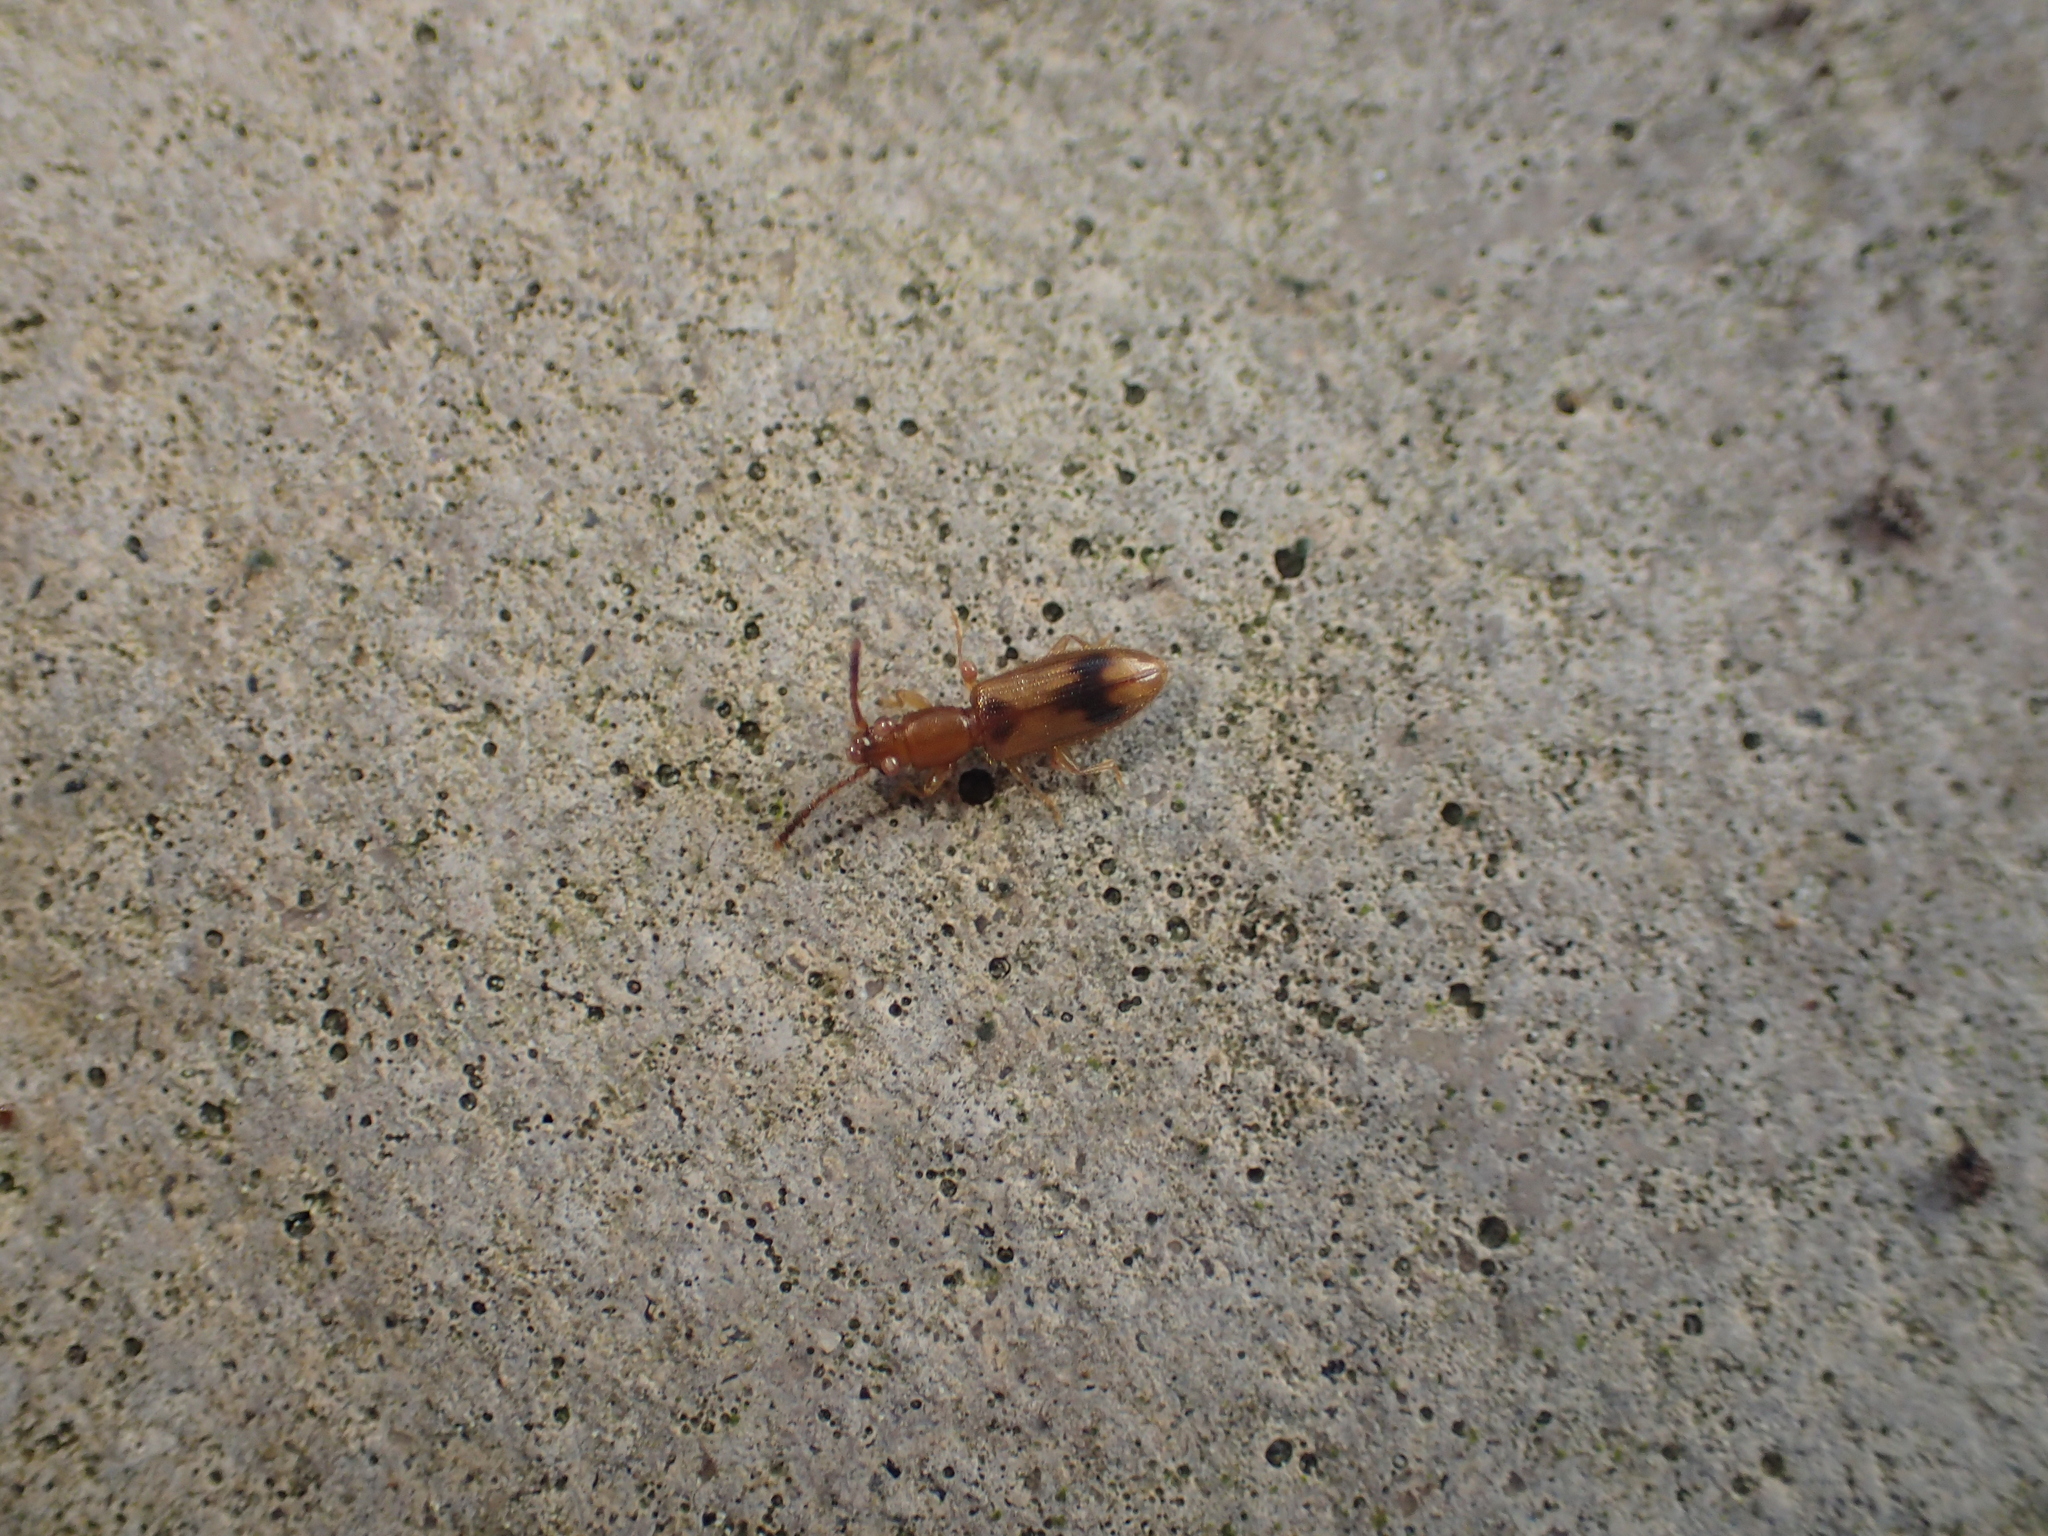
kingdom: Animalia
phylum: Arthropoda
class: Insecta
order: Coleoptera
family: Silvanidae
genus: Cryptamorpha
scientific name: Cryptamorpha desjardinsi
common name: Cryptamorpha
